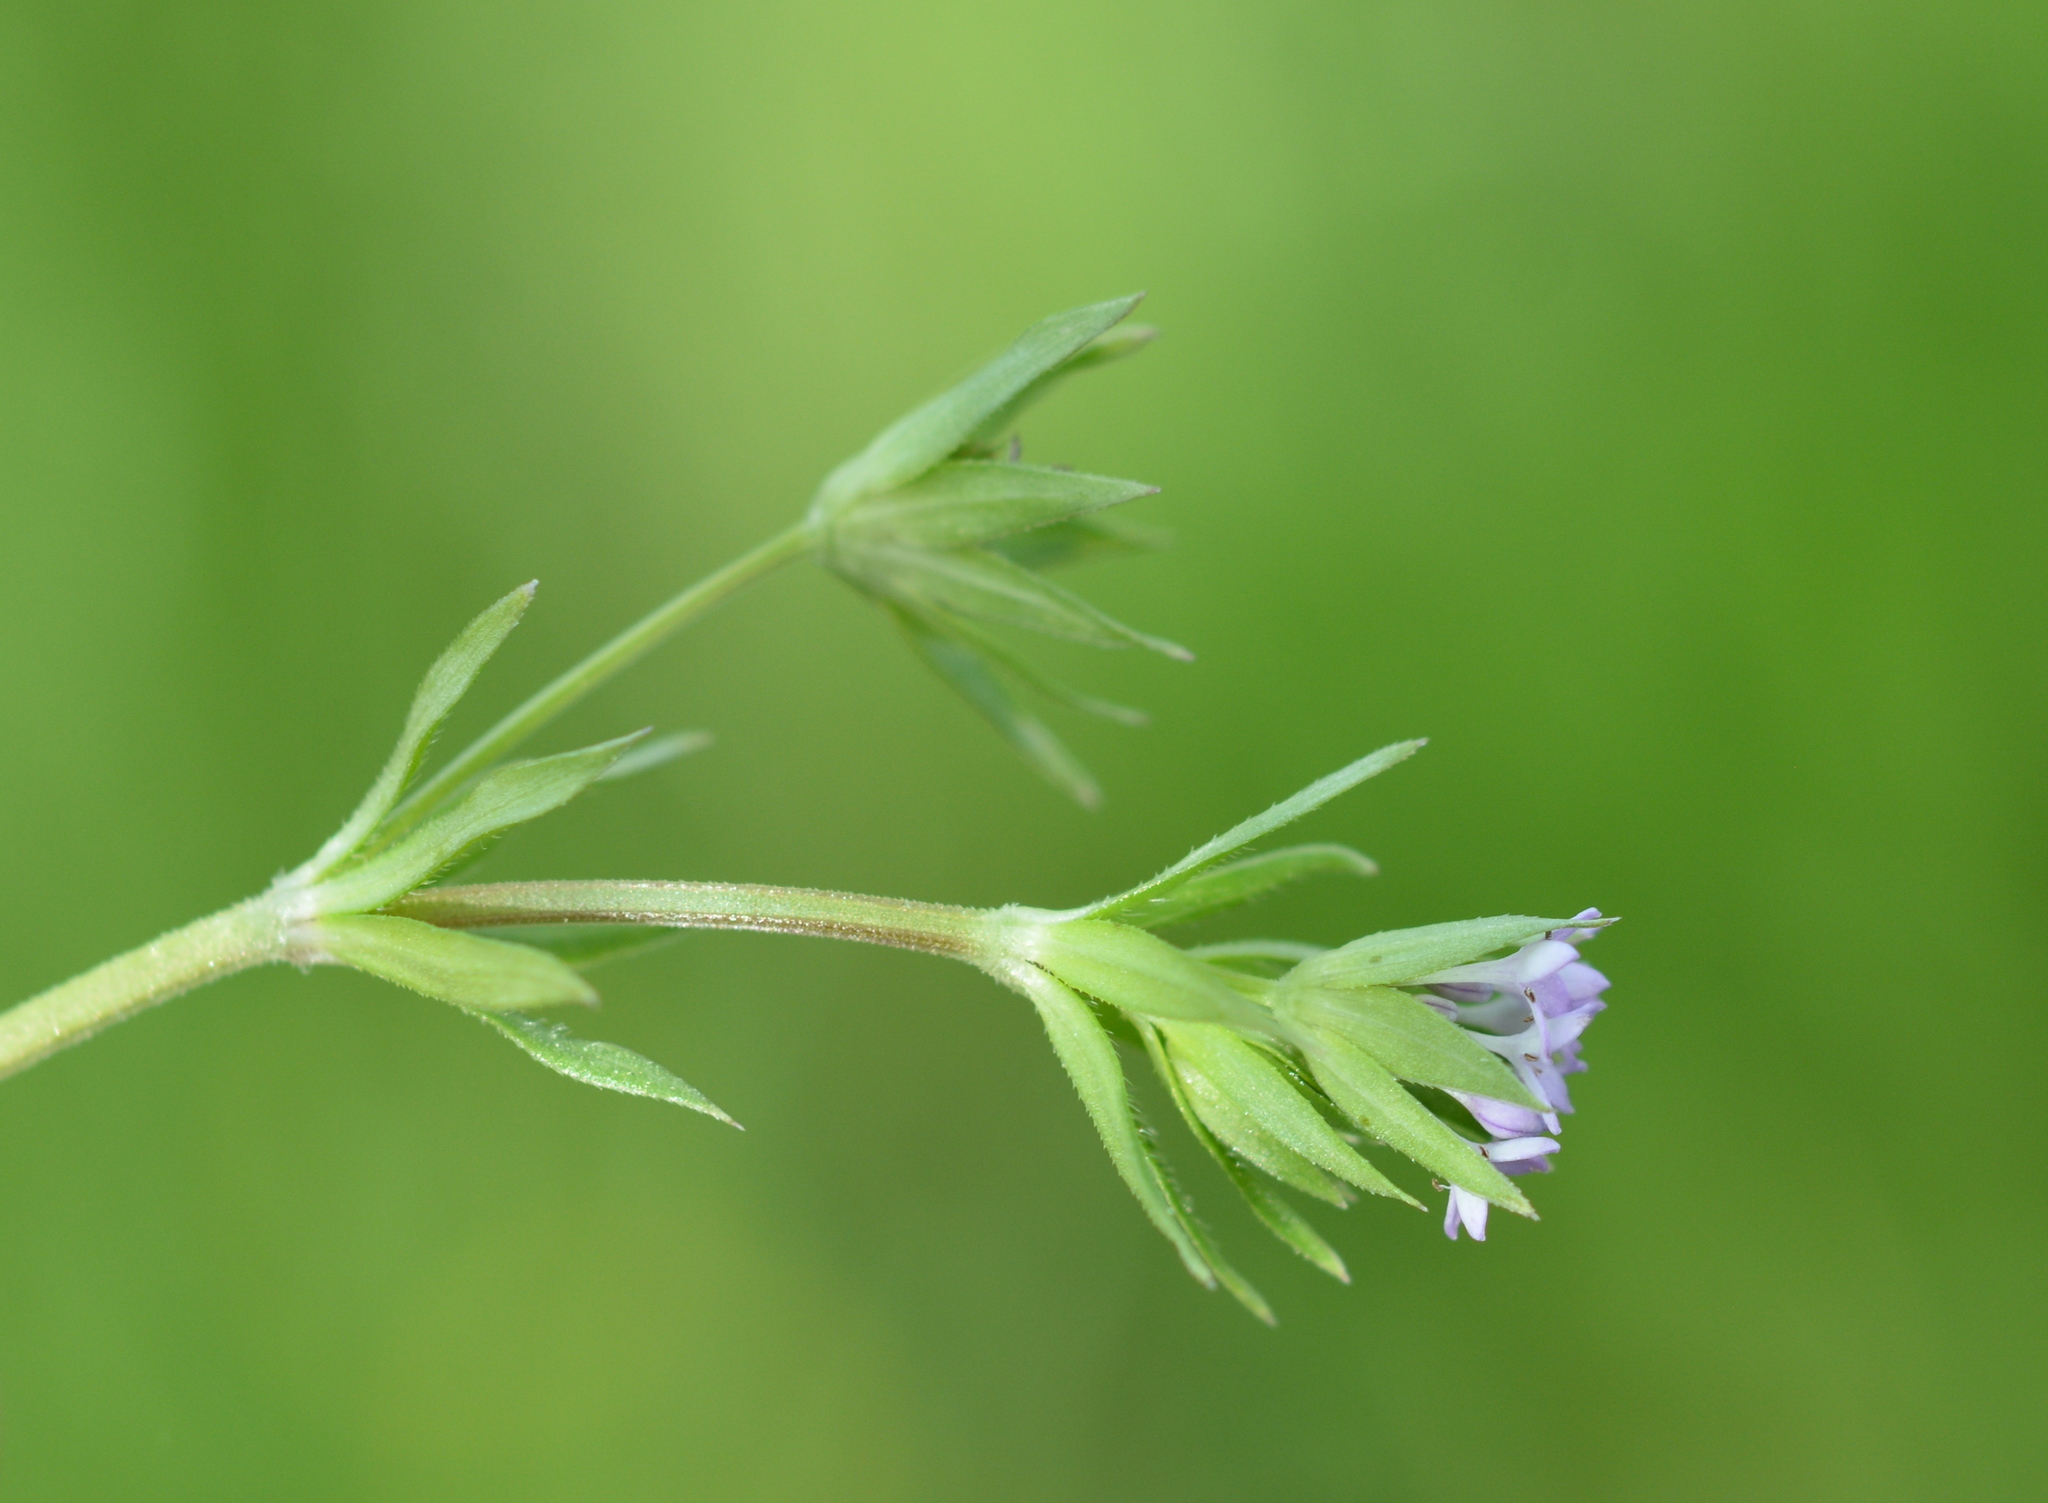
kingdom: Plantae
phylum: Tracheophyta
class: Magnoliopsida
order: Gentianales
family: Rubiaceae
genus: Sherardia
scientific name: Sherardia arvensis
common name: Field madder
